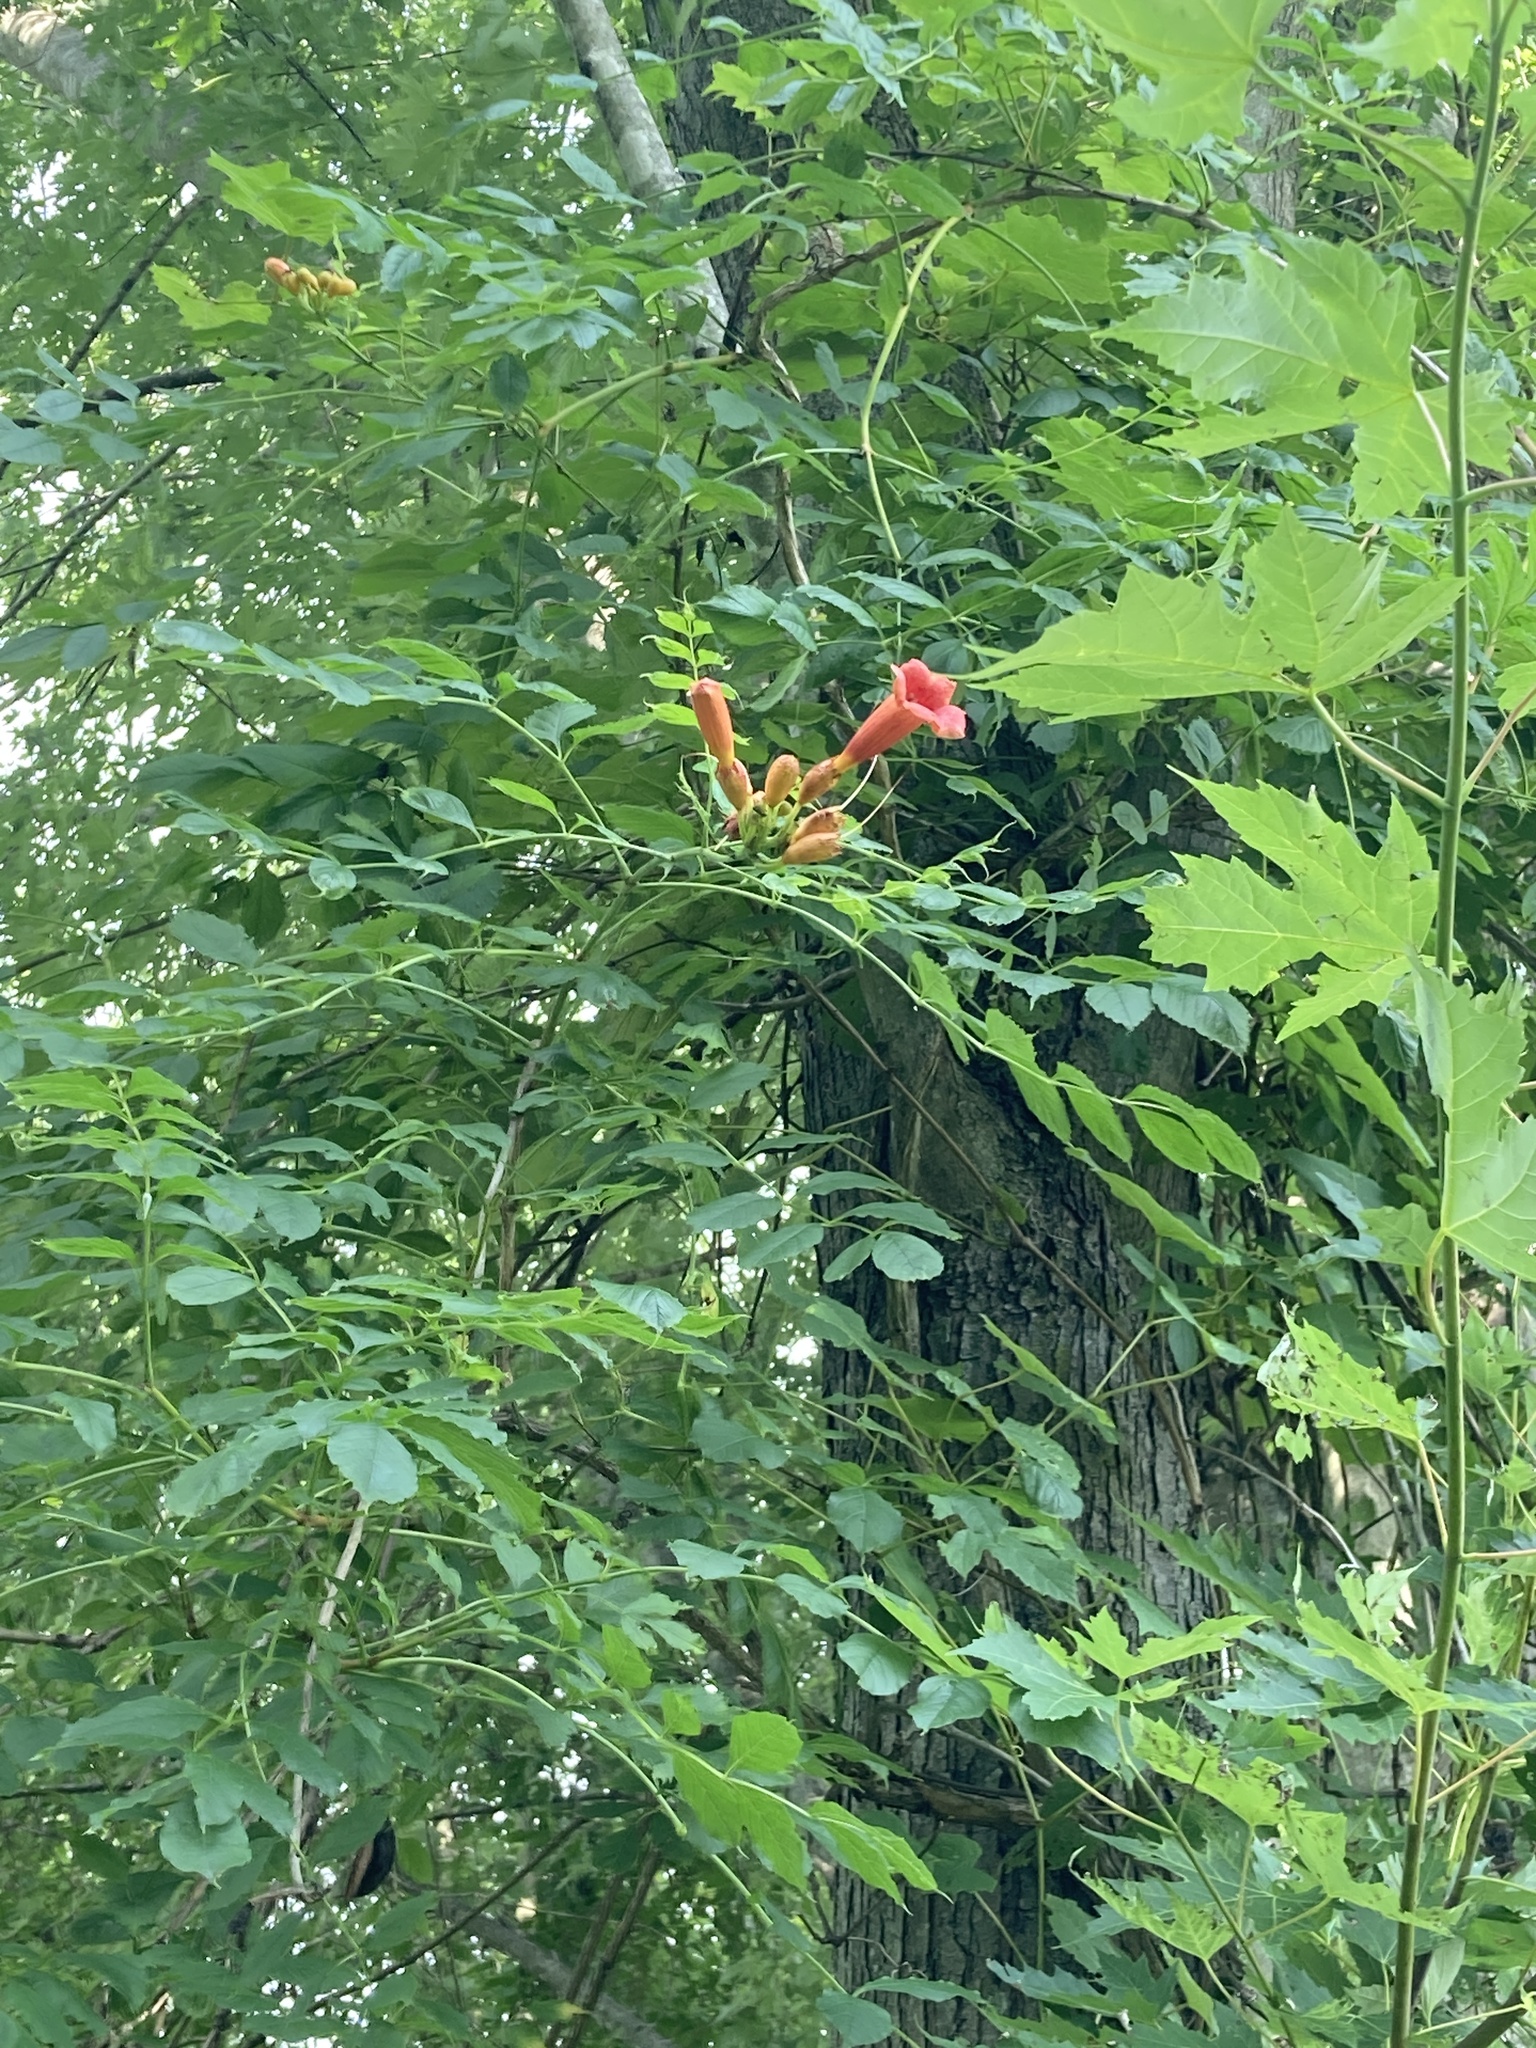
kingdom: Plantae
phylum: Tracheophyta
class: Magnoliopsida
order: Lamiales
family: Bignoniaceae
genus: Campsis
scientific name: Campsis radicans
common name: Trumpet-creeper
